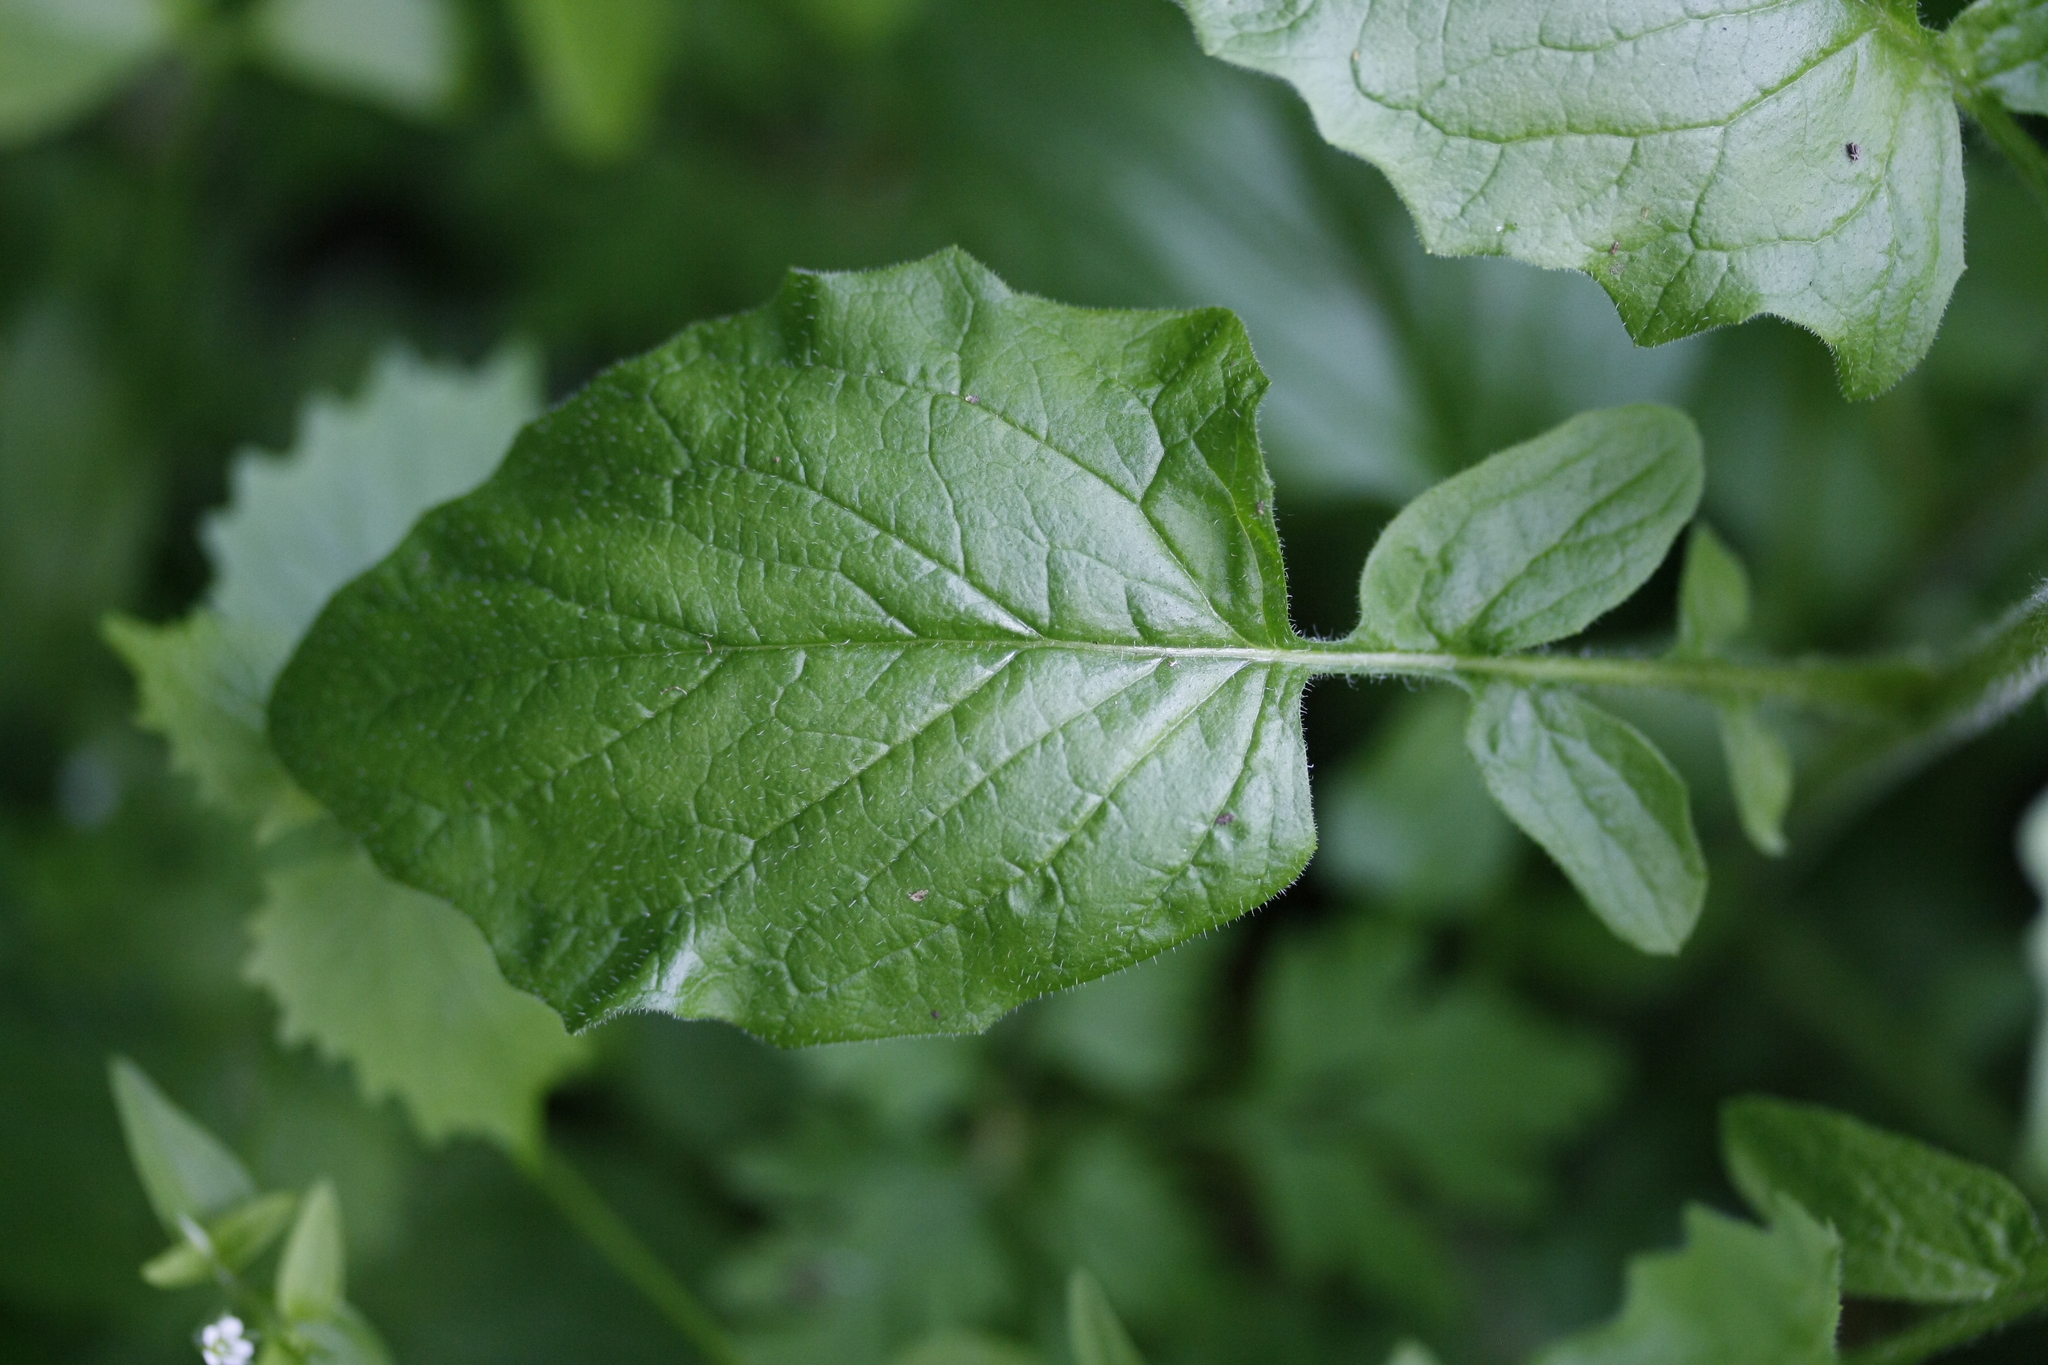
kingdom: Plantae
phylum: Tracheophyta
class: Magnoliopsida
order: Asterales
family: Asteraceae
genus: Lapsana
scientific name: Lapsana communis
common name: Nipplewort
